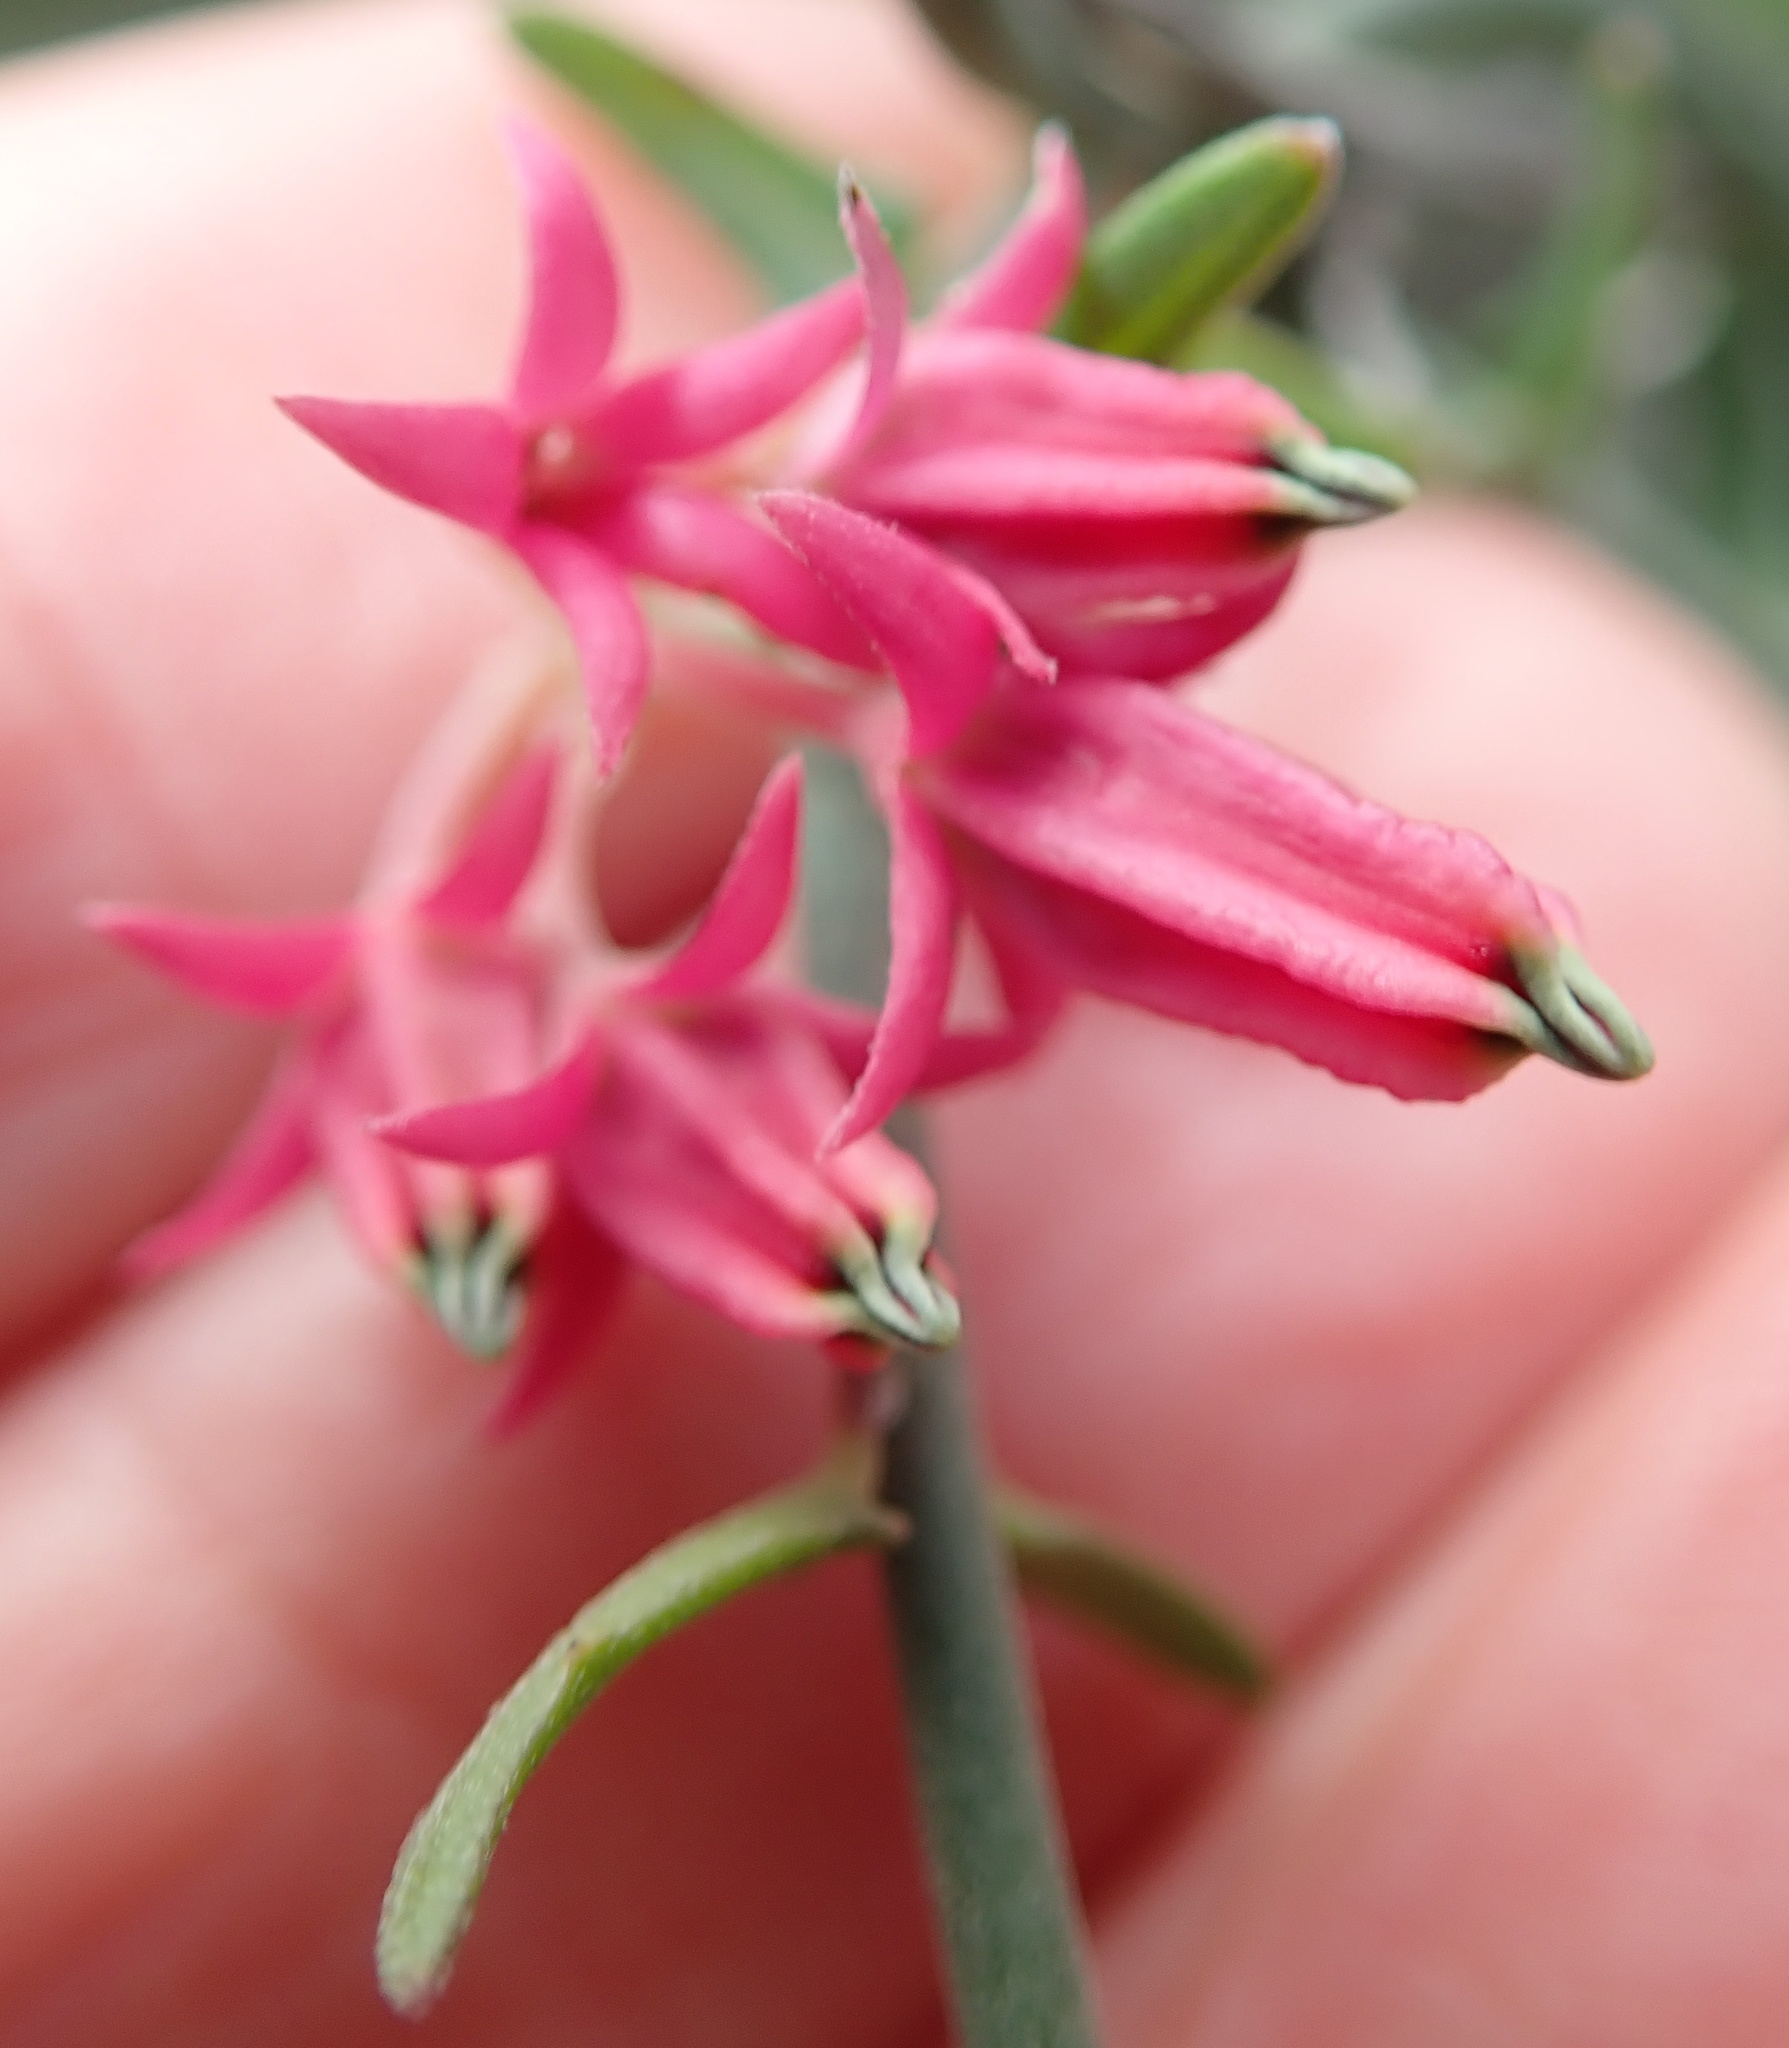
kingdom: Plantae
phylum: Tracheophyta
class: Magnoliopsida
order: Gentianales
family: Apocynaceae
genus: Microloma
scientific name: Microloma sagittatum
